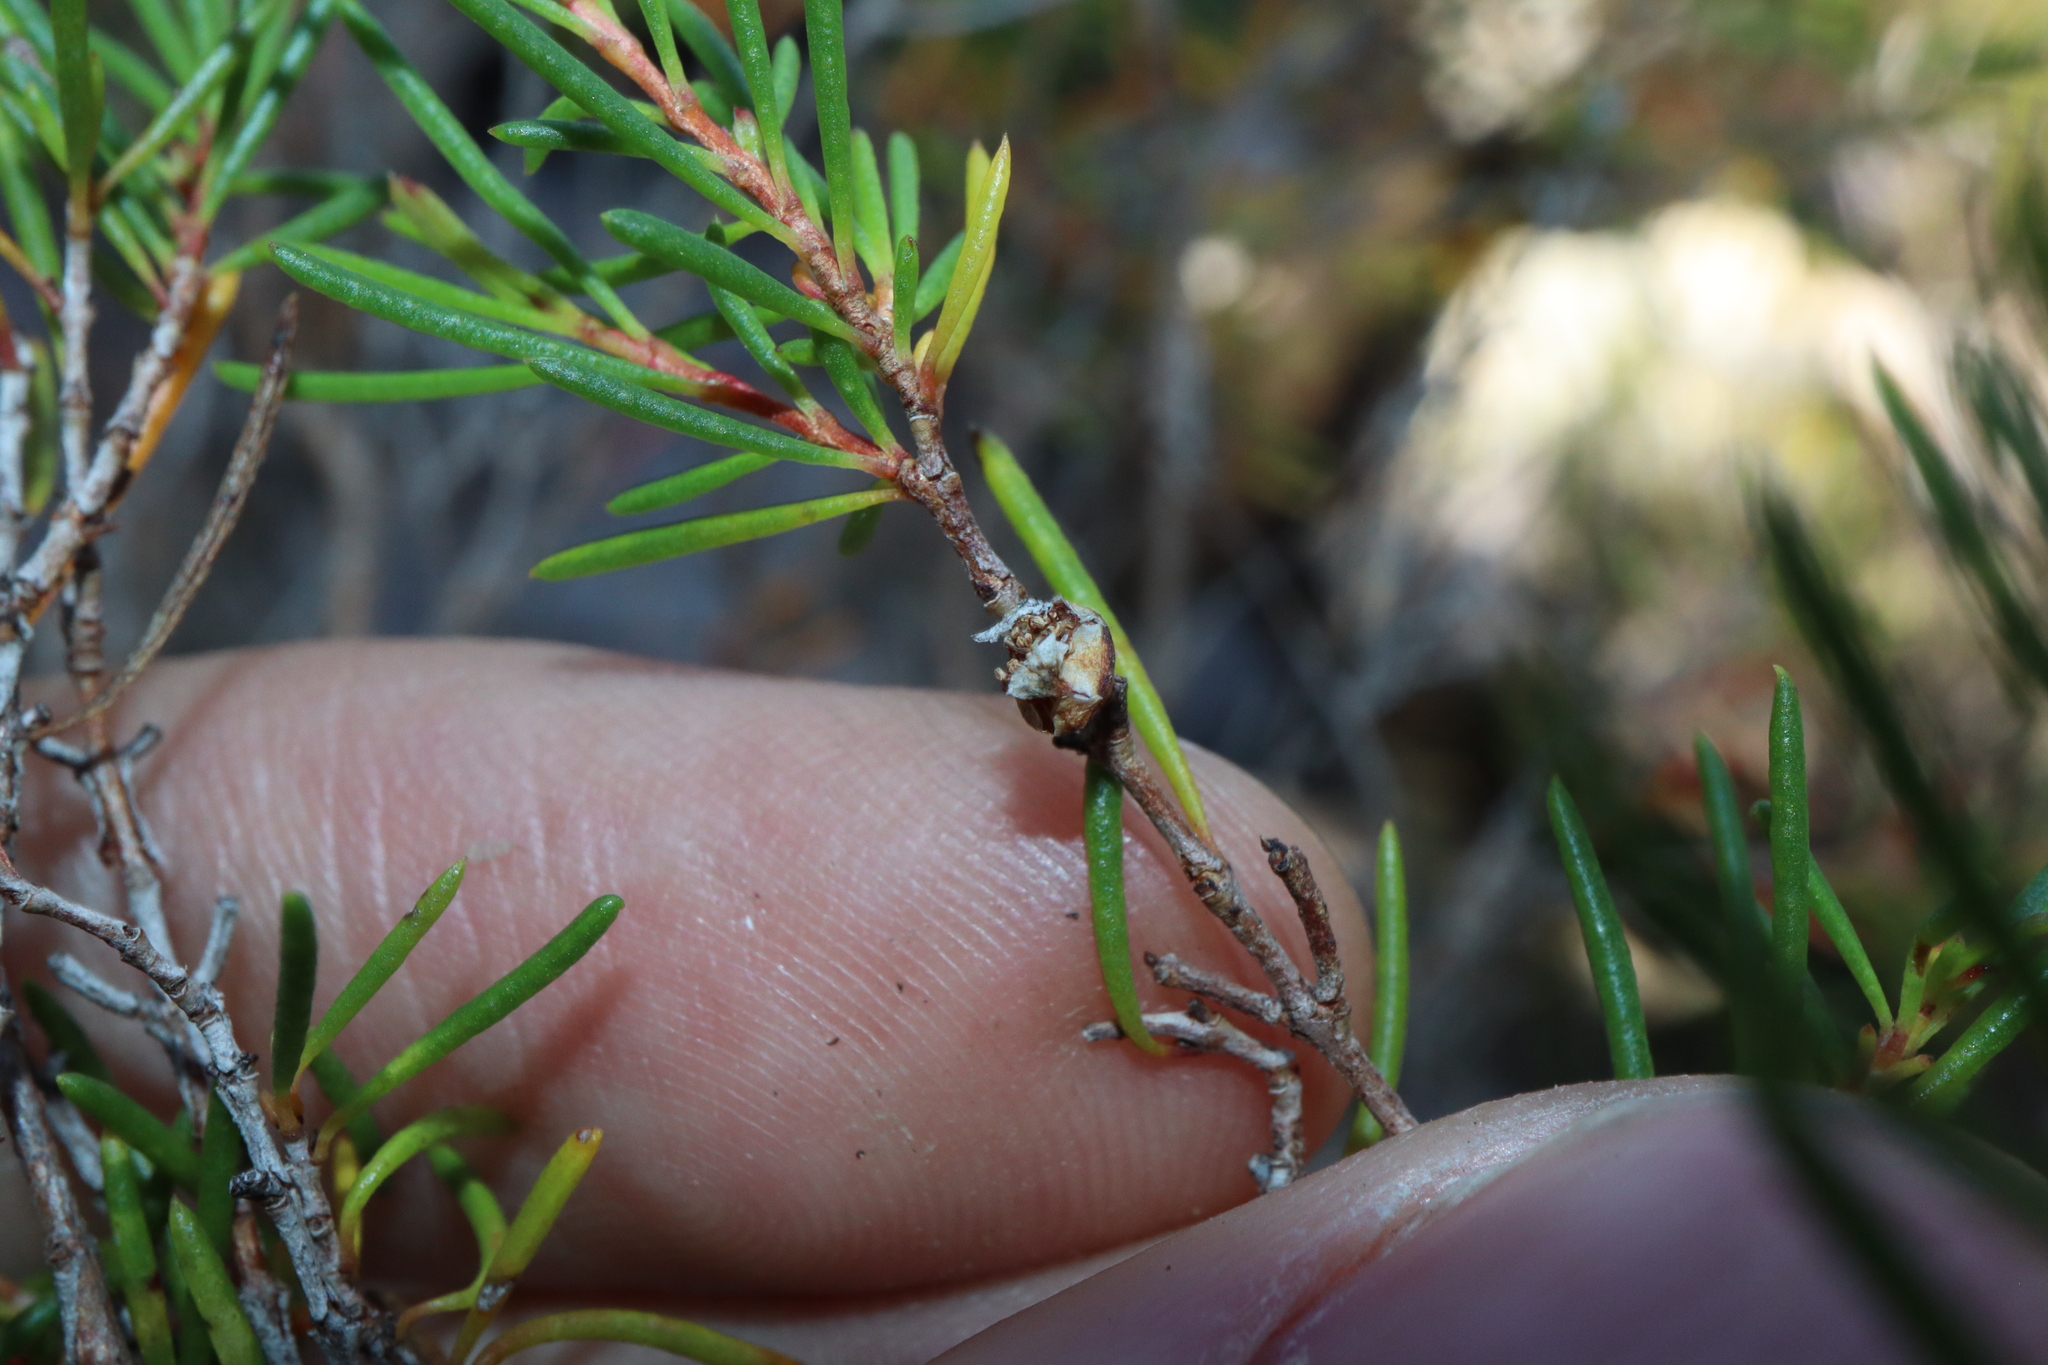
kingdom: Plantae
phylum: Tracheophyta
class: Magnoliopsida
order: Myrtales
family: Myrtaceae
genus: Hypocalymma
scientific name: Hypocalymma jessicae
